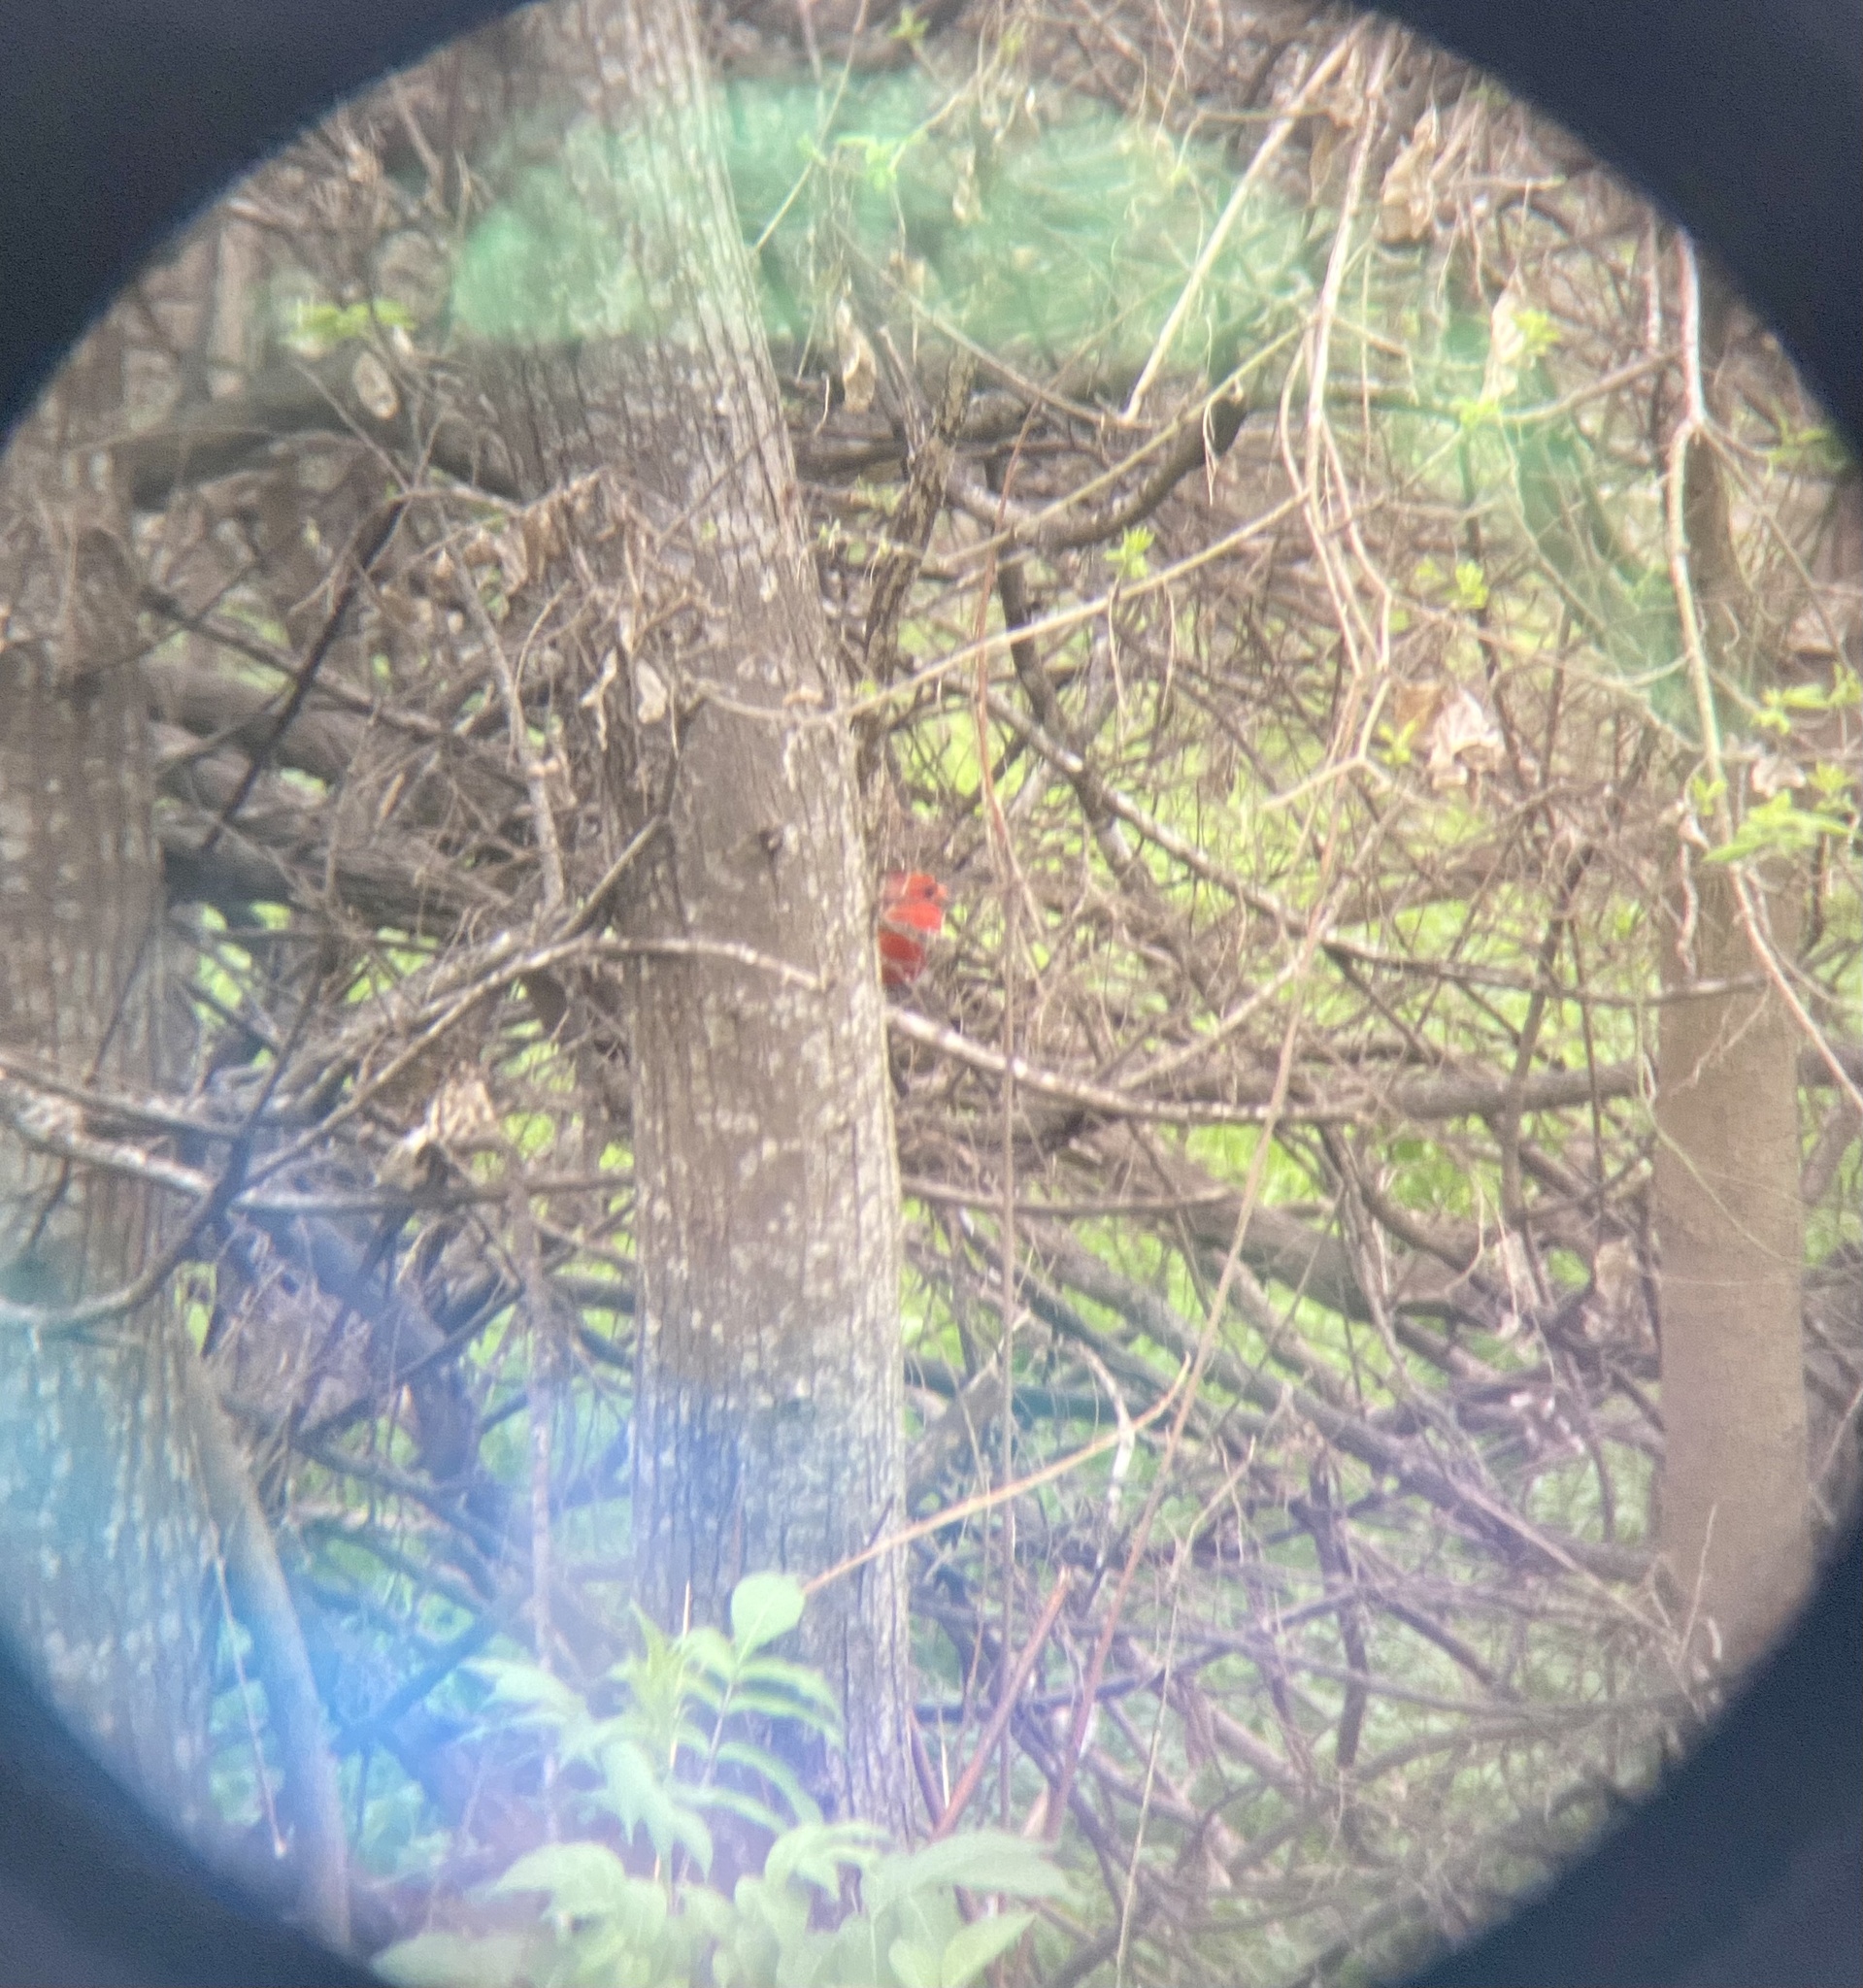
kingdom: Animalia
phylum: Chordata
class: Aves
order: Passeriformes
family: Cardinalidae
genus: Cardinalis
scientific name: Cardinalis cardinalis
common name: Northern cardinal
